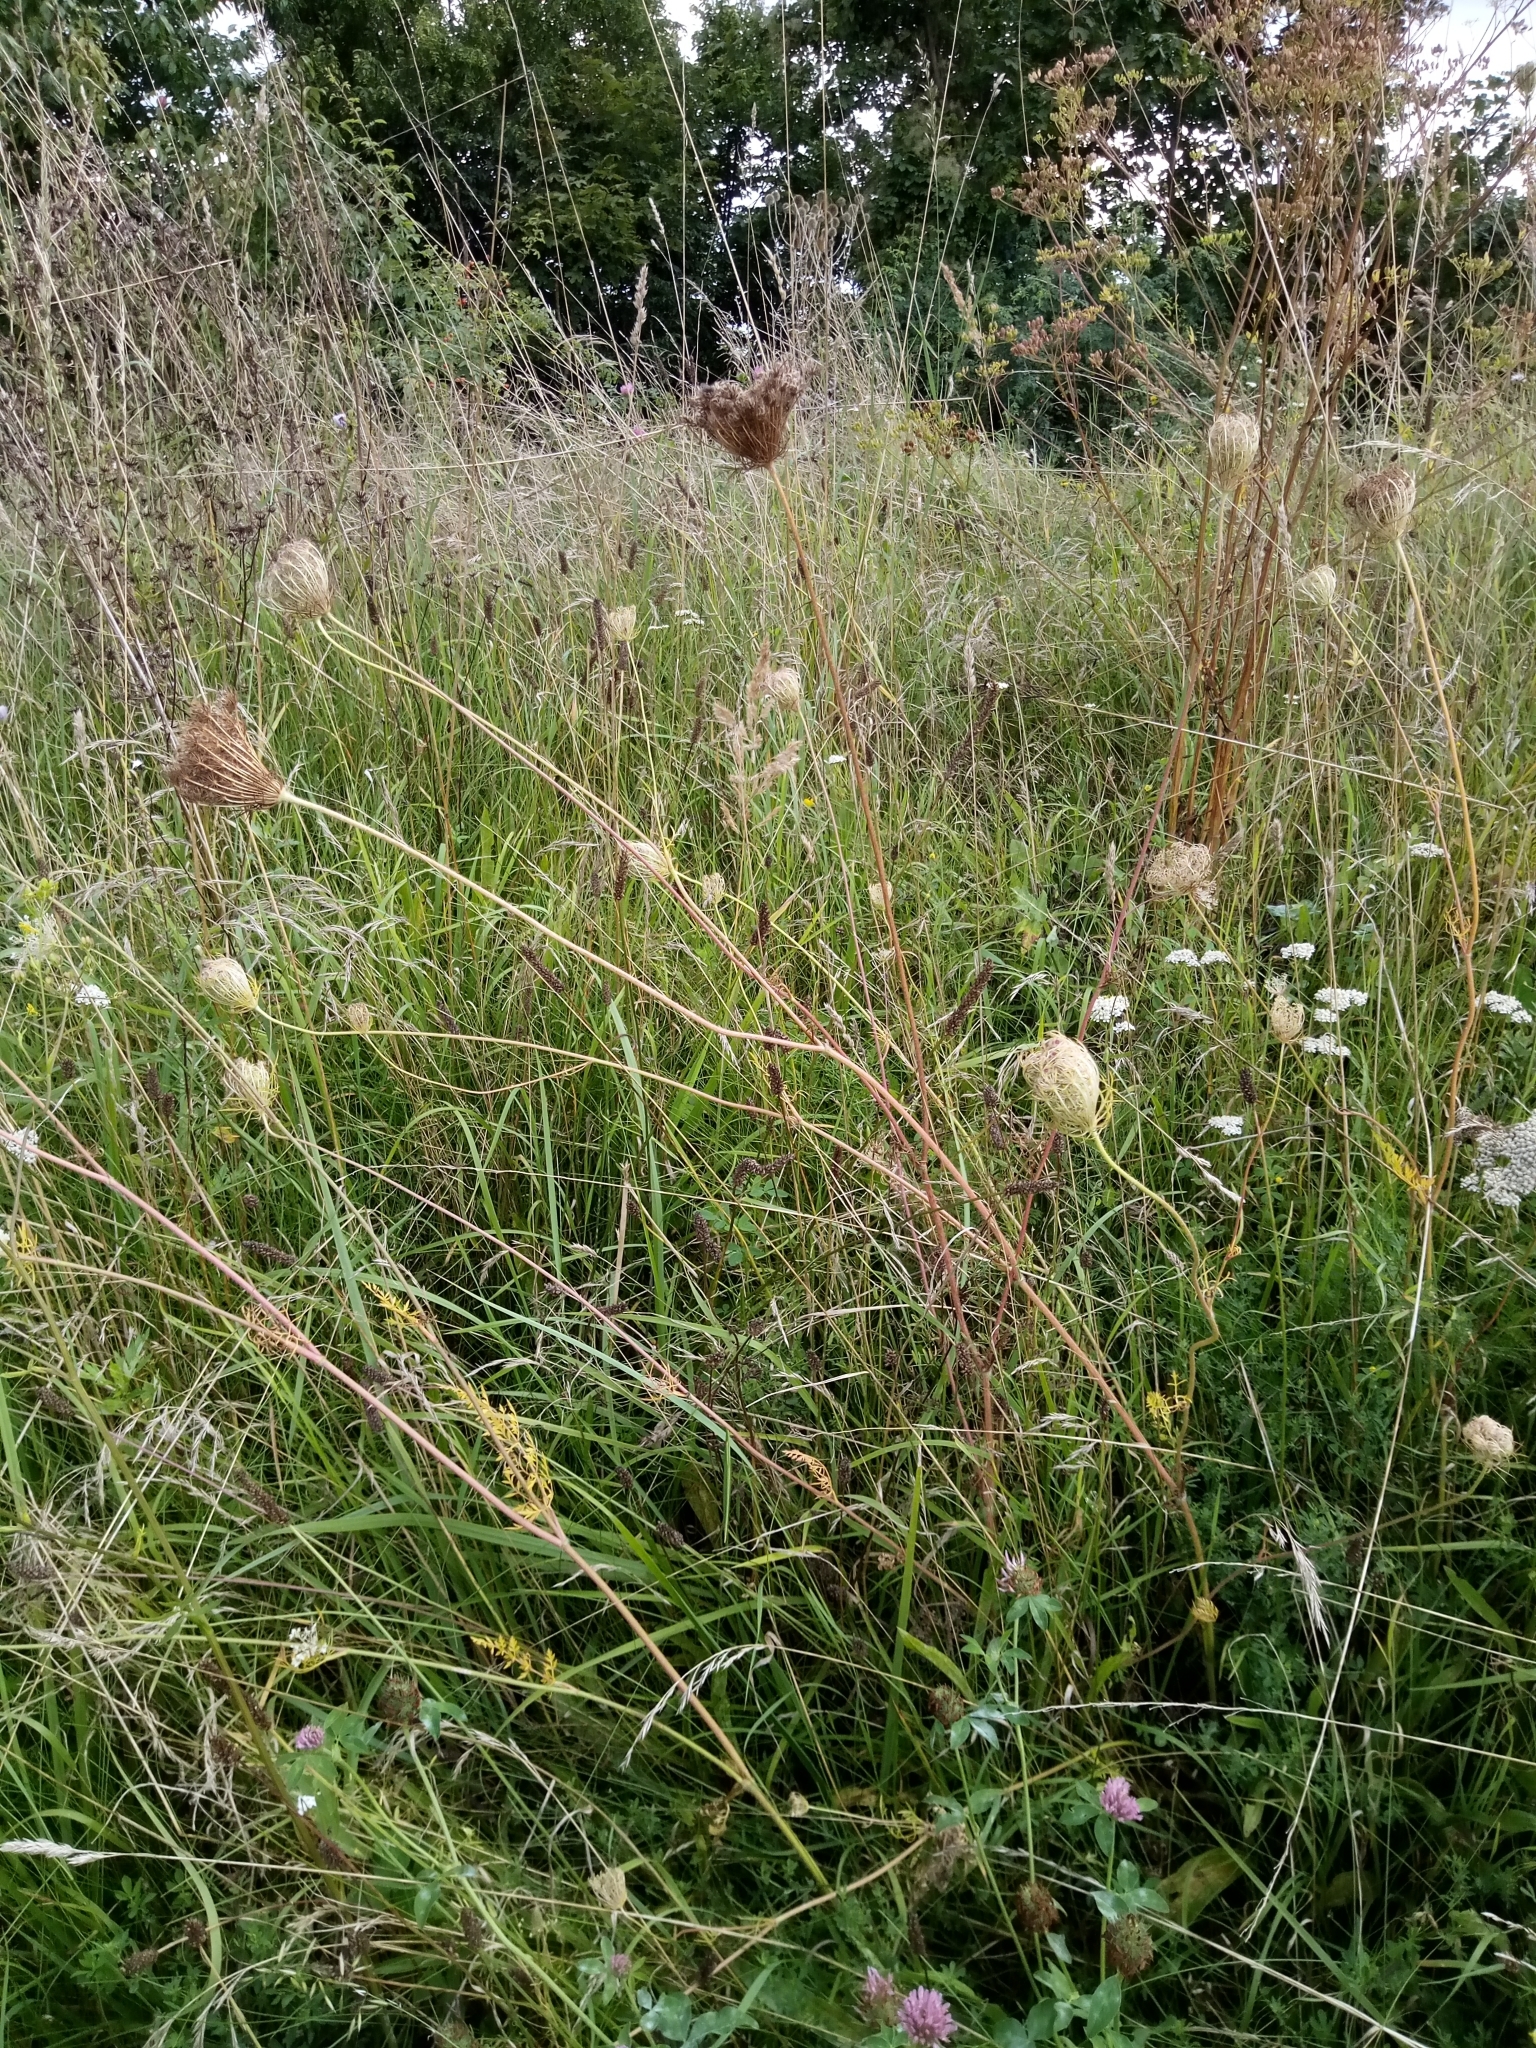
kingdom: Plantae
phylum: Tracheophyta
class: Magnoliopsida
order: Apiales
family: Apiaceae
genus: Daucus
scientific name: Daucus carota
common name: Wild carrot
